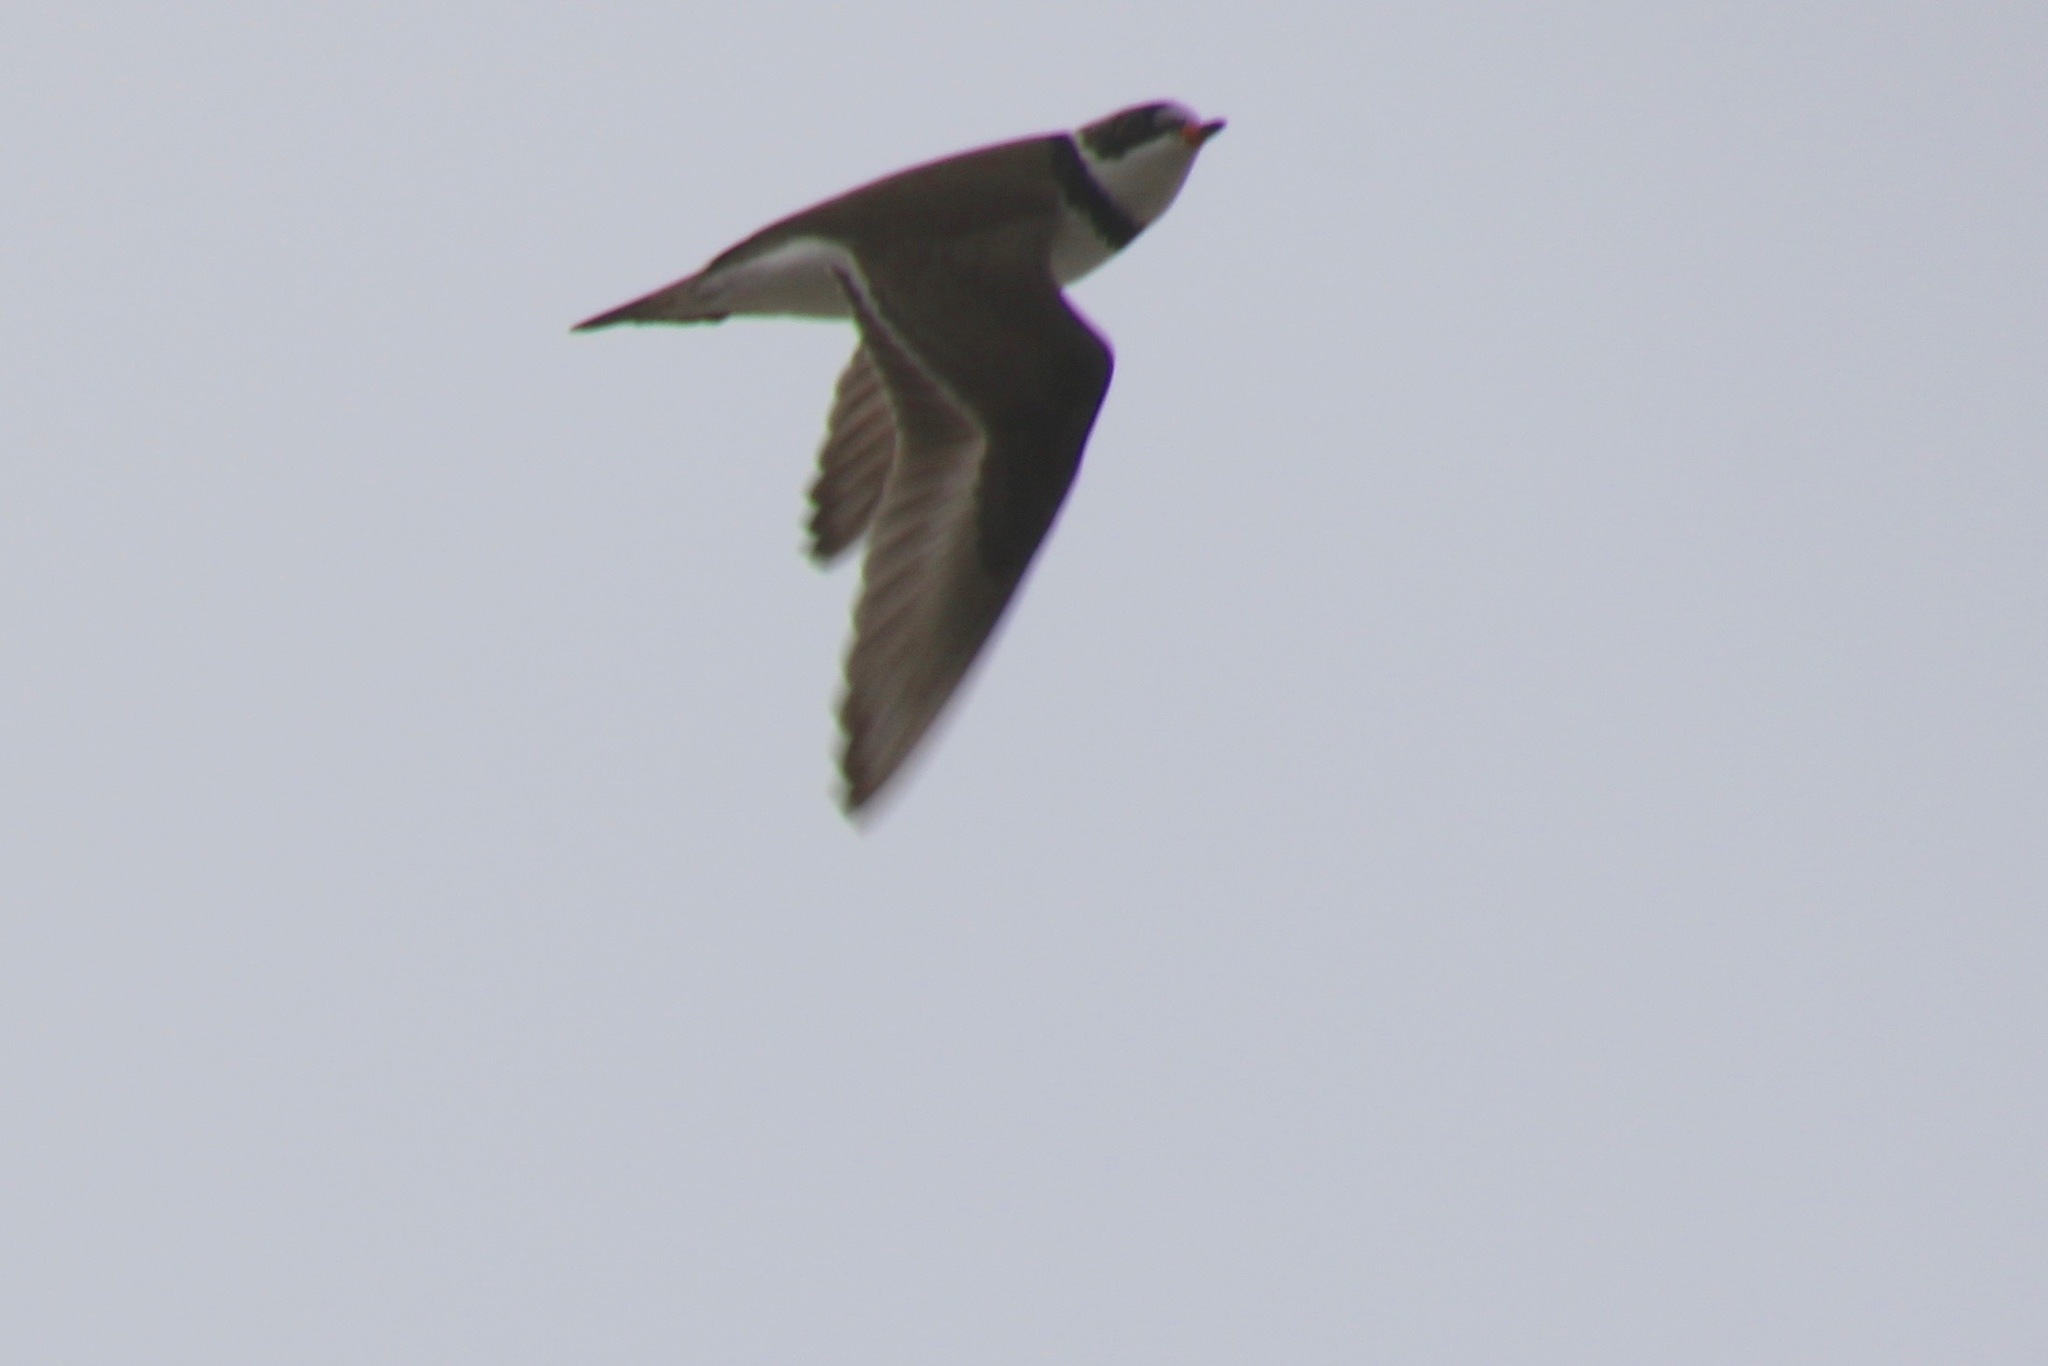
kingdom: Animalia
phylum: Chordata
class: Aves
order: Charadriiformes
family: Charadriidae
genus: Charadrius
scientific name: Charadrius semipalmatus
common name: Semipalmated plover
